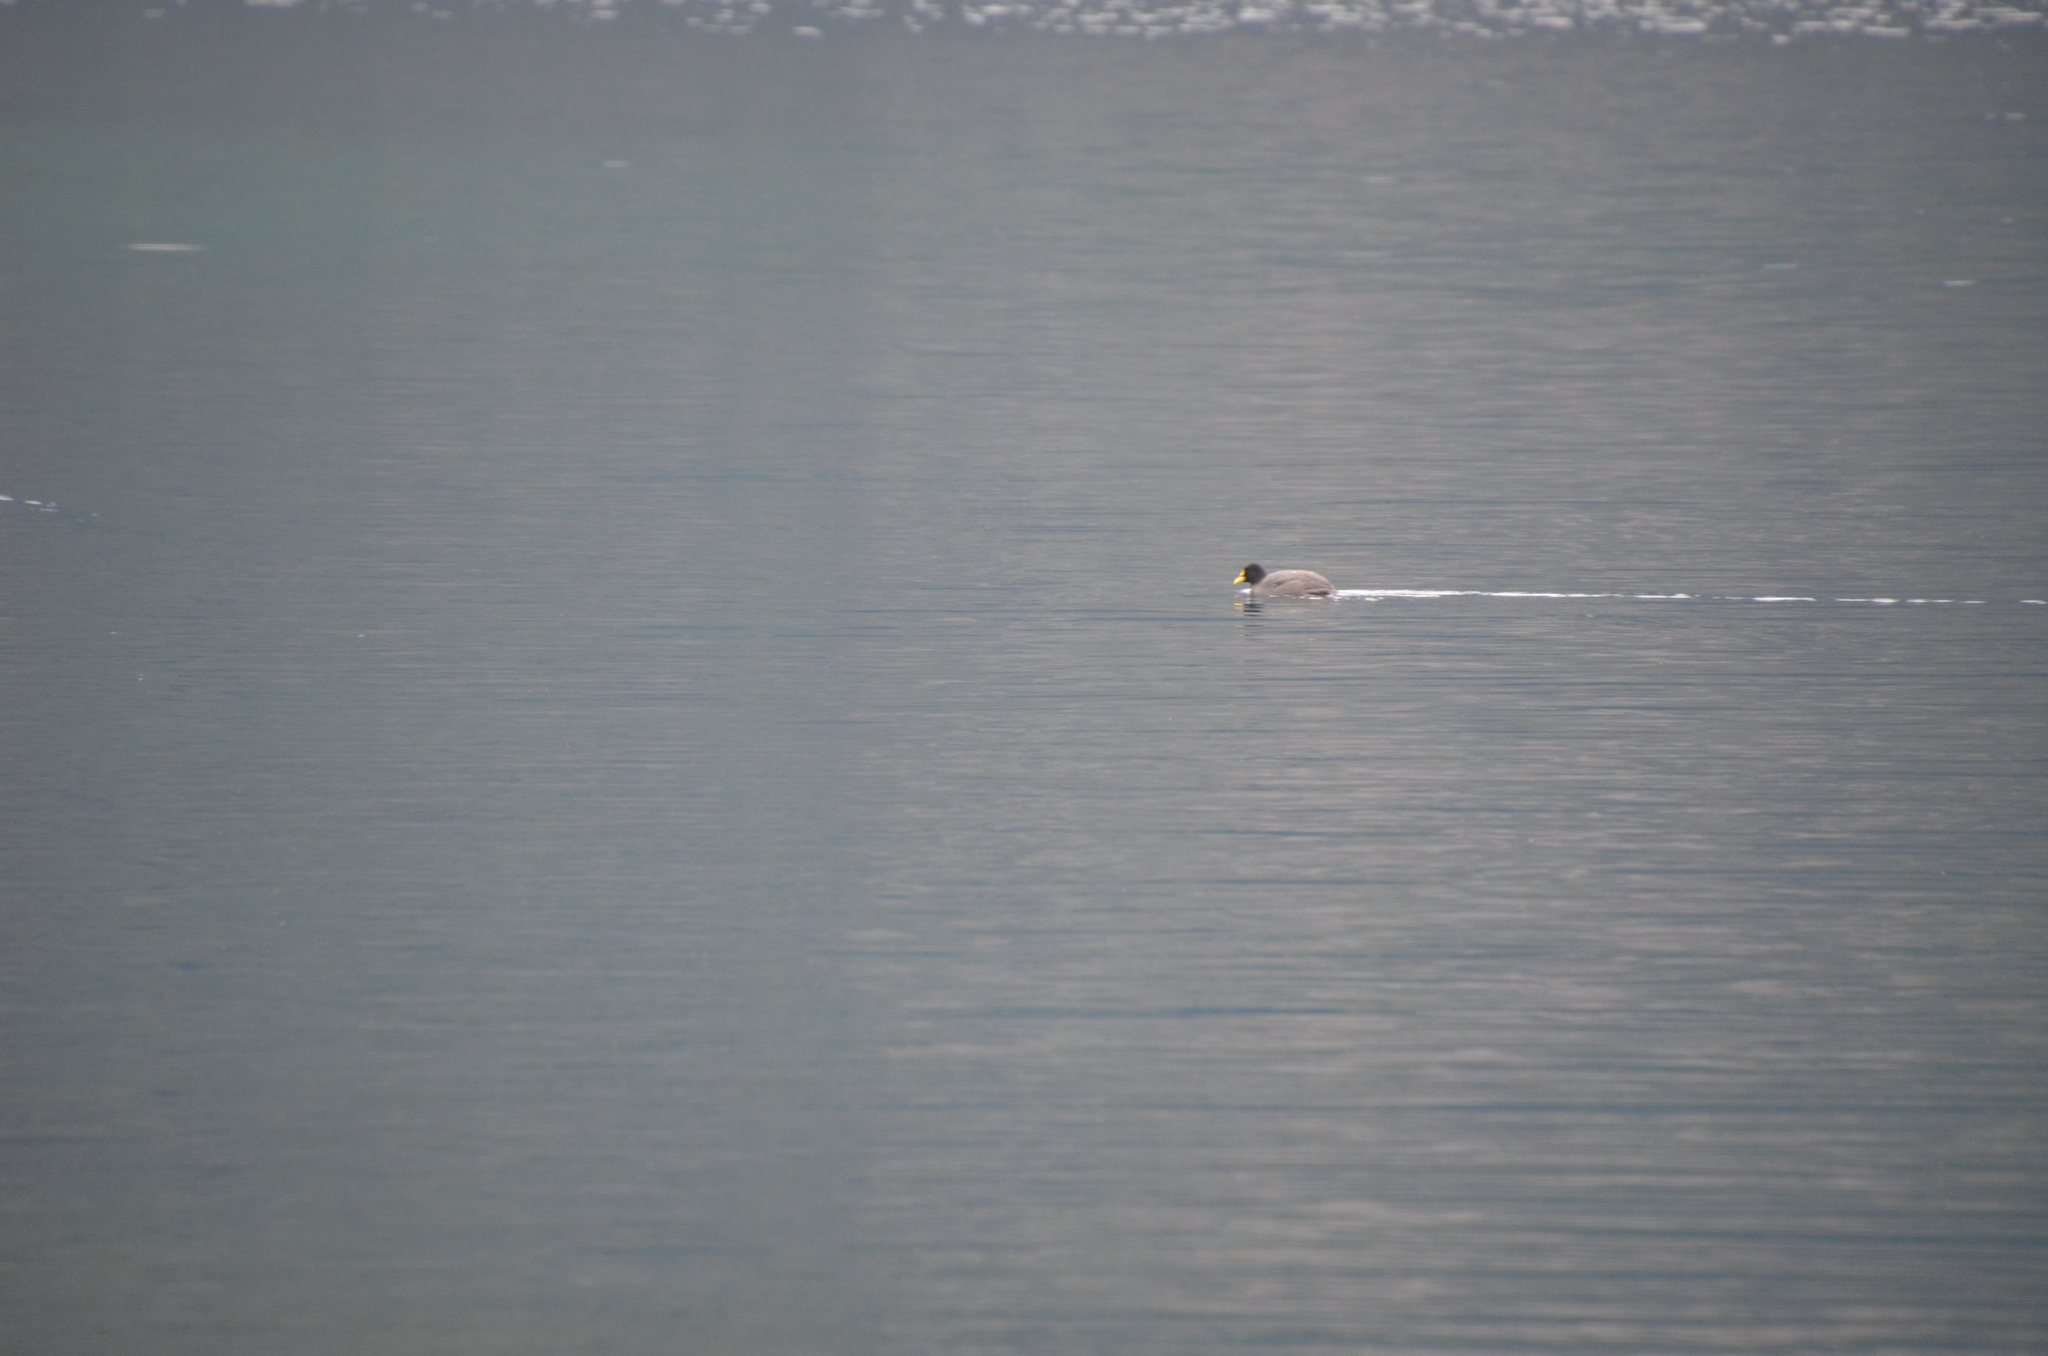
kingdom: Animalia
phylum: Chordata
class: Aves
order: Gruiformes
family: Rallidae
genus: Fulica
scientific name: Fulica armillata
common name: Red-gartered coot
